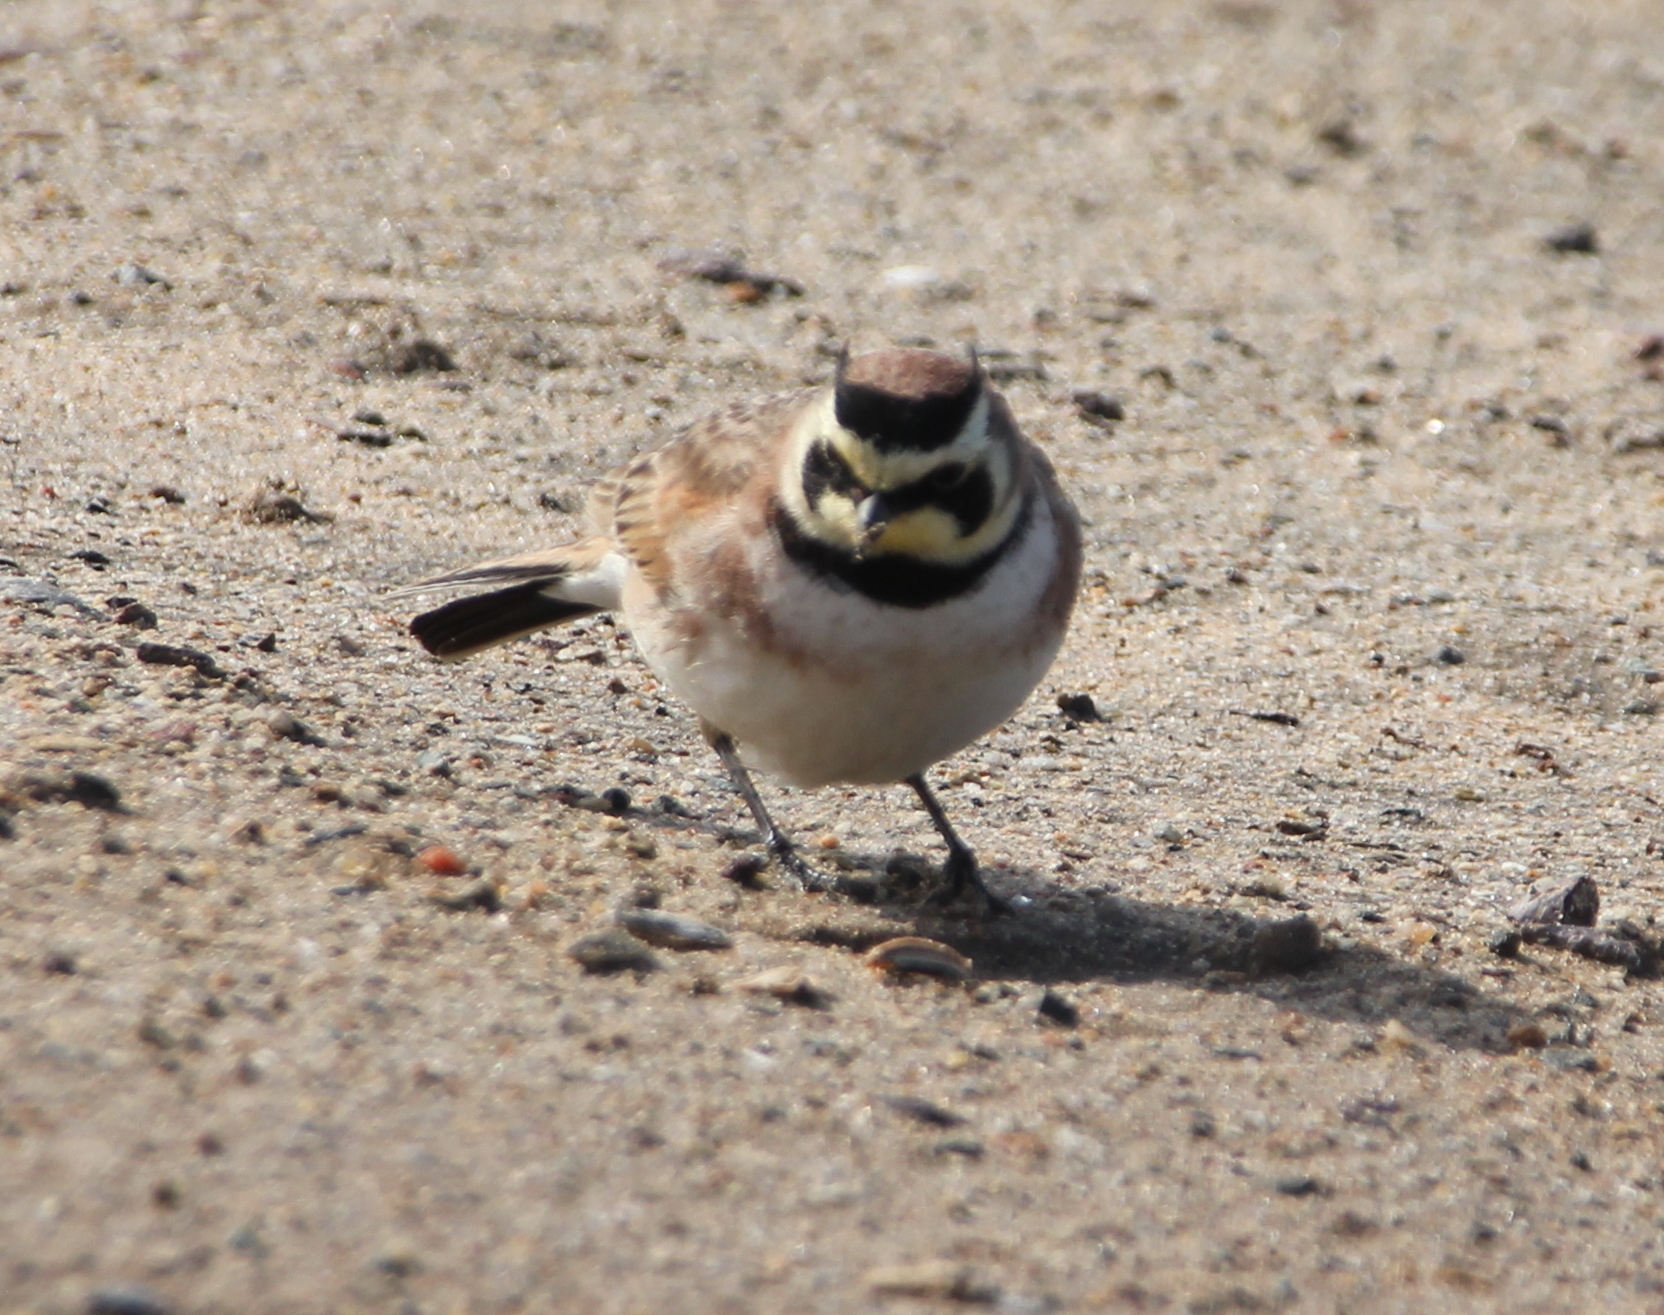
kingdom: Animalia
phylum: Chordata
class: Aves
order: Passeriformes
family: Alaudidae
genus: Eremophila
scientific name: Eremophila alpestris
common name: Horned lark
